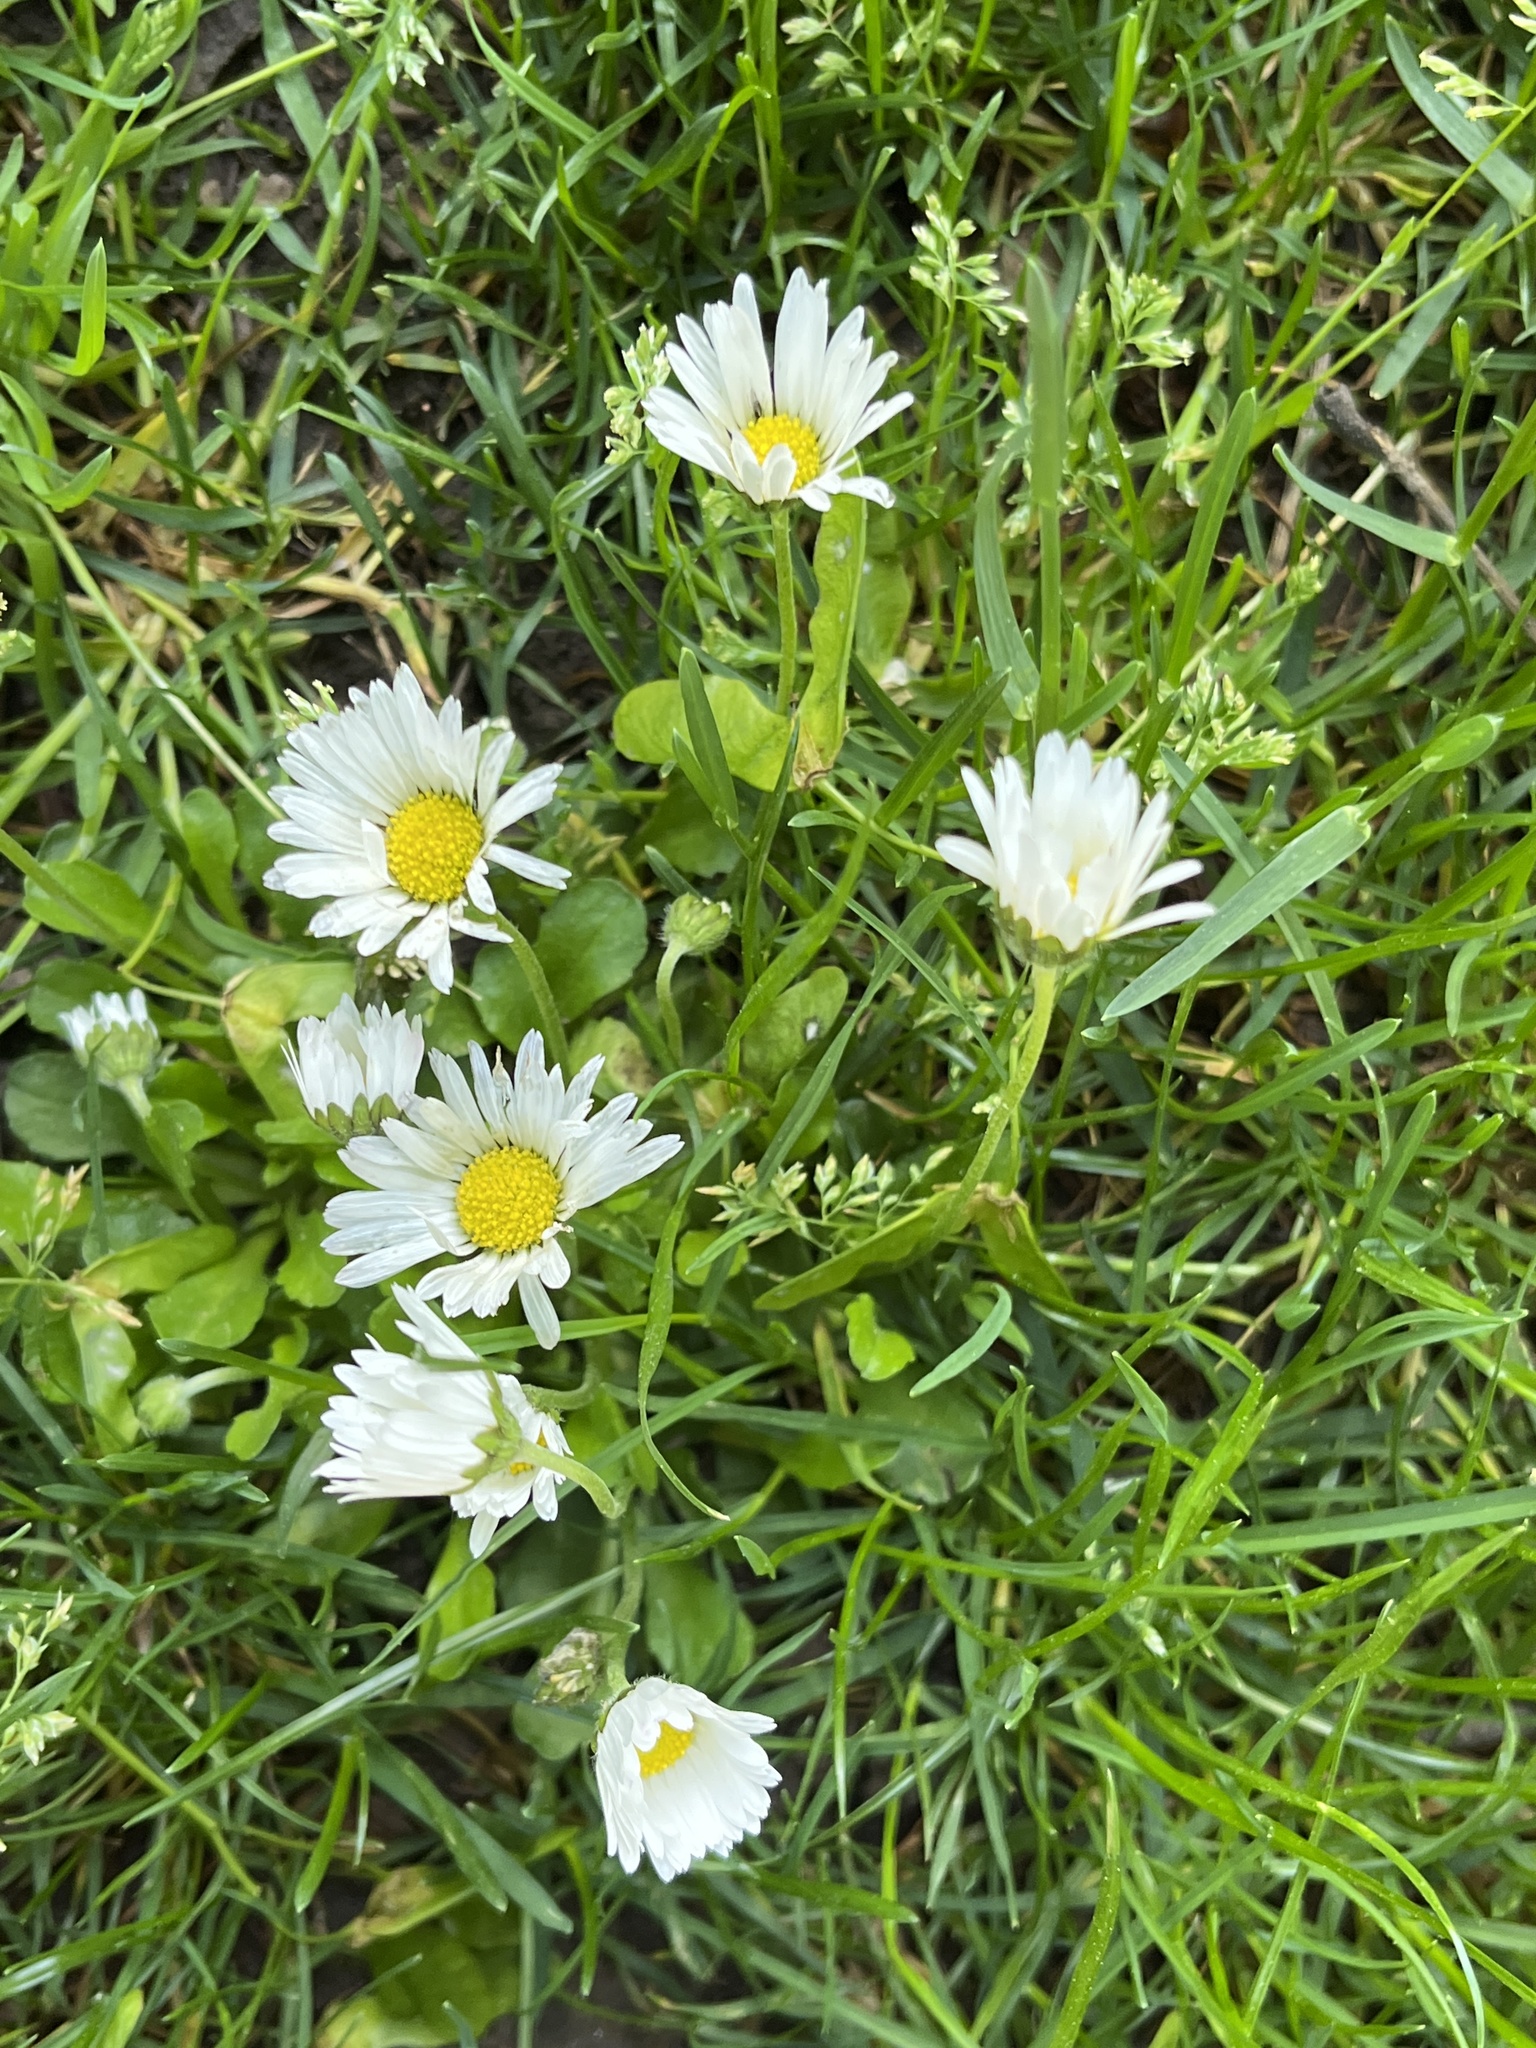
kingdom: Plantae
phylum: Tracheophyta
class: Magnoliopsida
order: Asterales
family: Asteraceae
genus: Bellis
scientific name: Bellis perennis
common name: Lawndaisy
